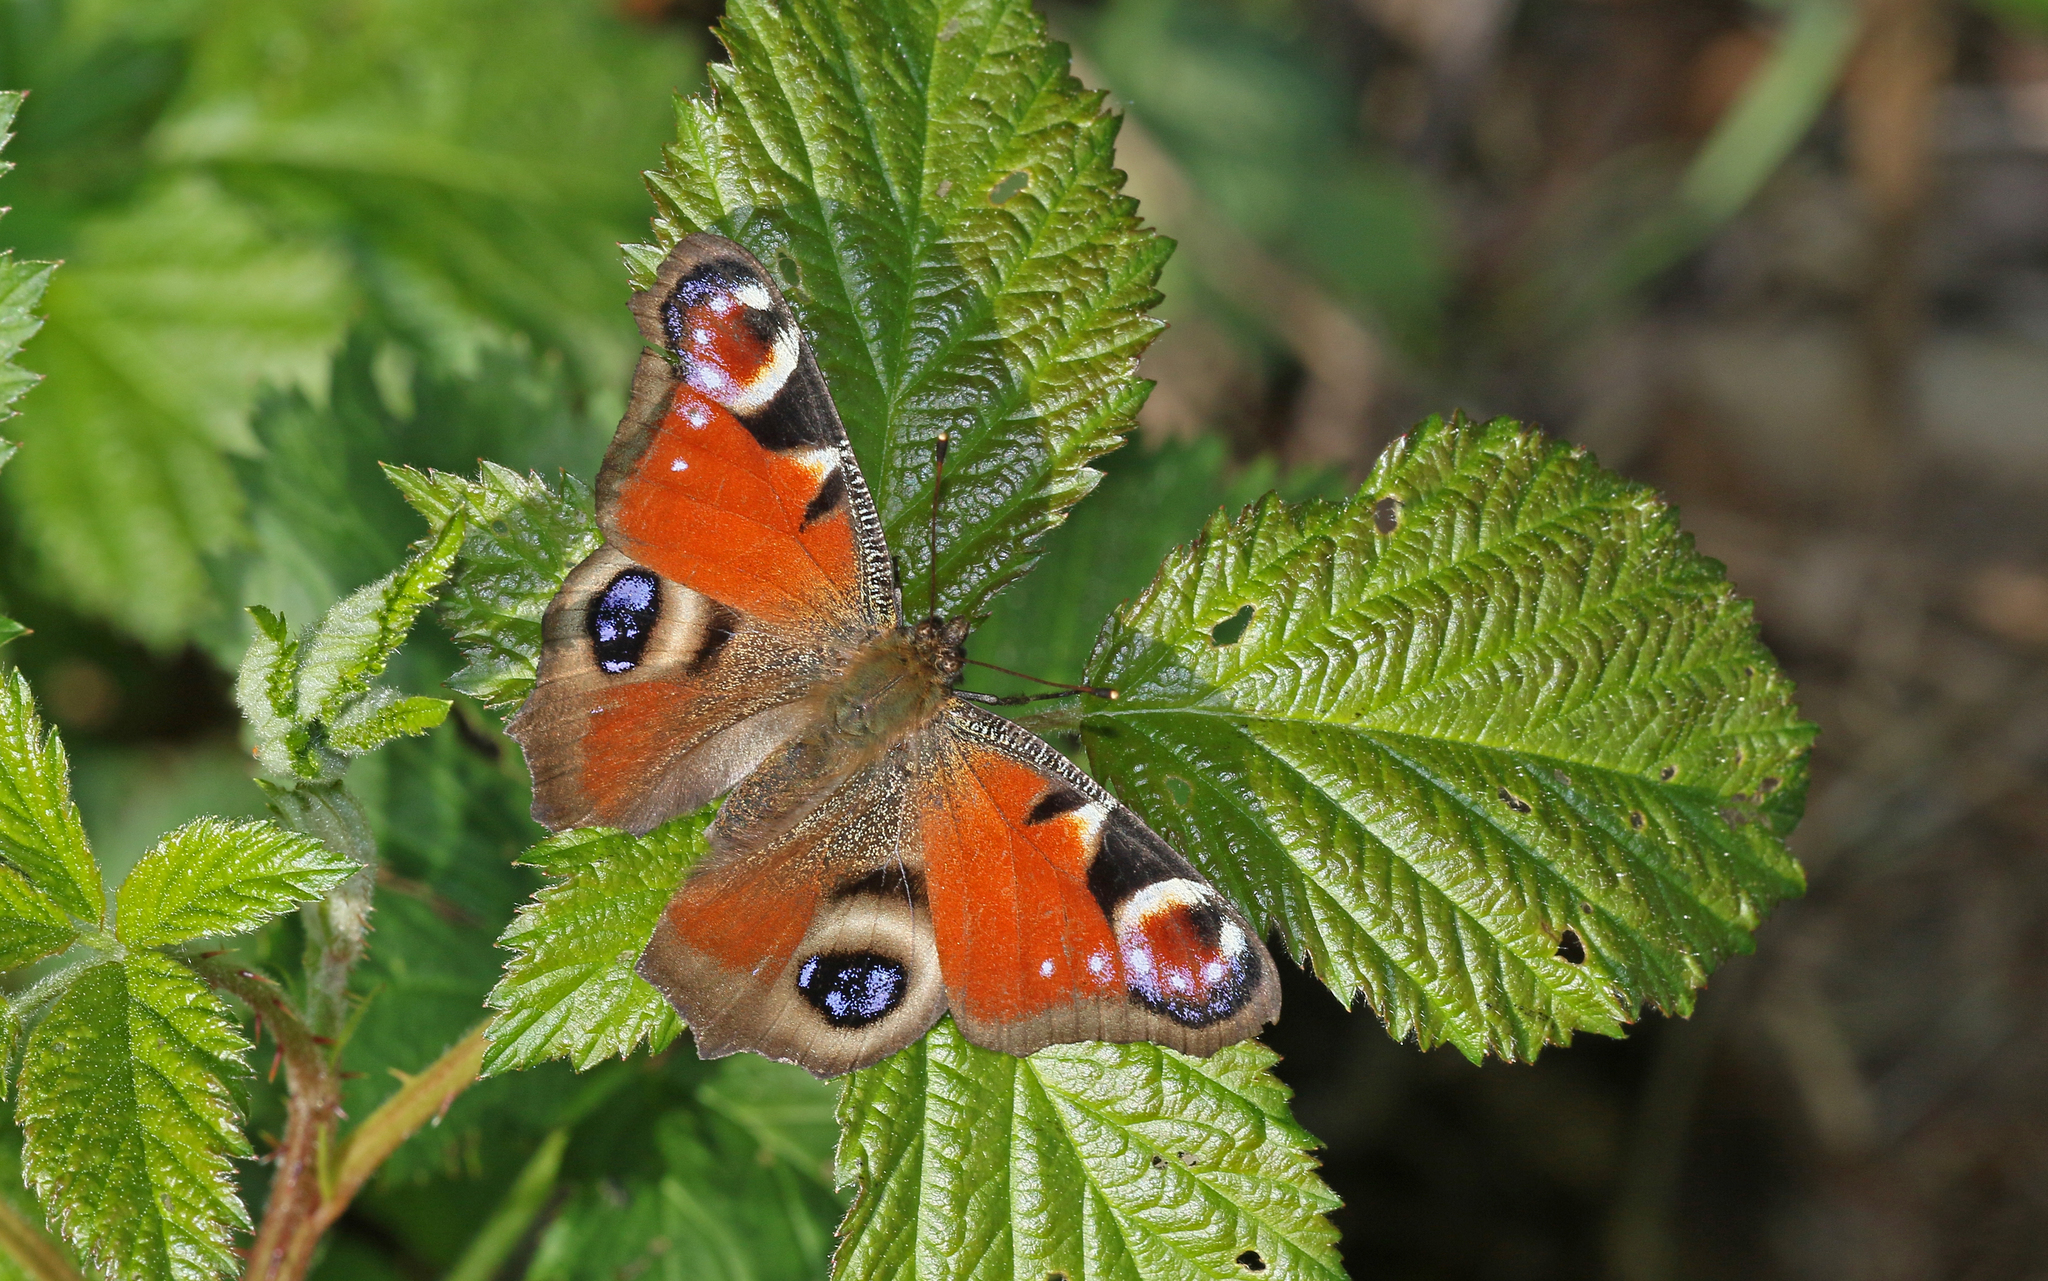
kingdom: Animalia
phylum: Arthropoda
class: Insecta
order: Lepidoptera
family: Nymphalidae
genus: Aglais
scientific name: Aglais io
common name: Peacock
